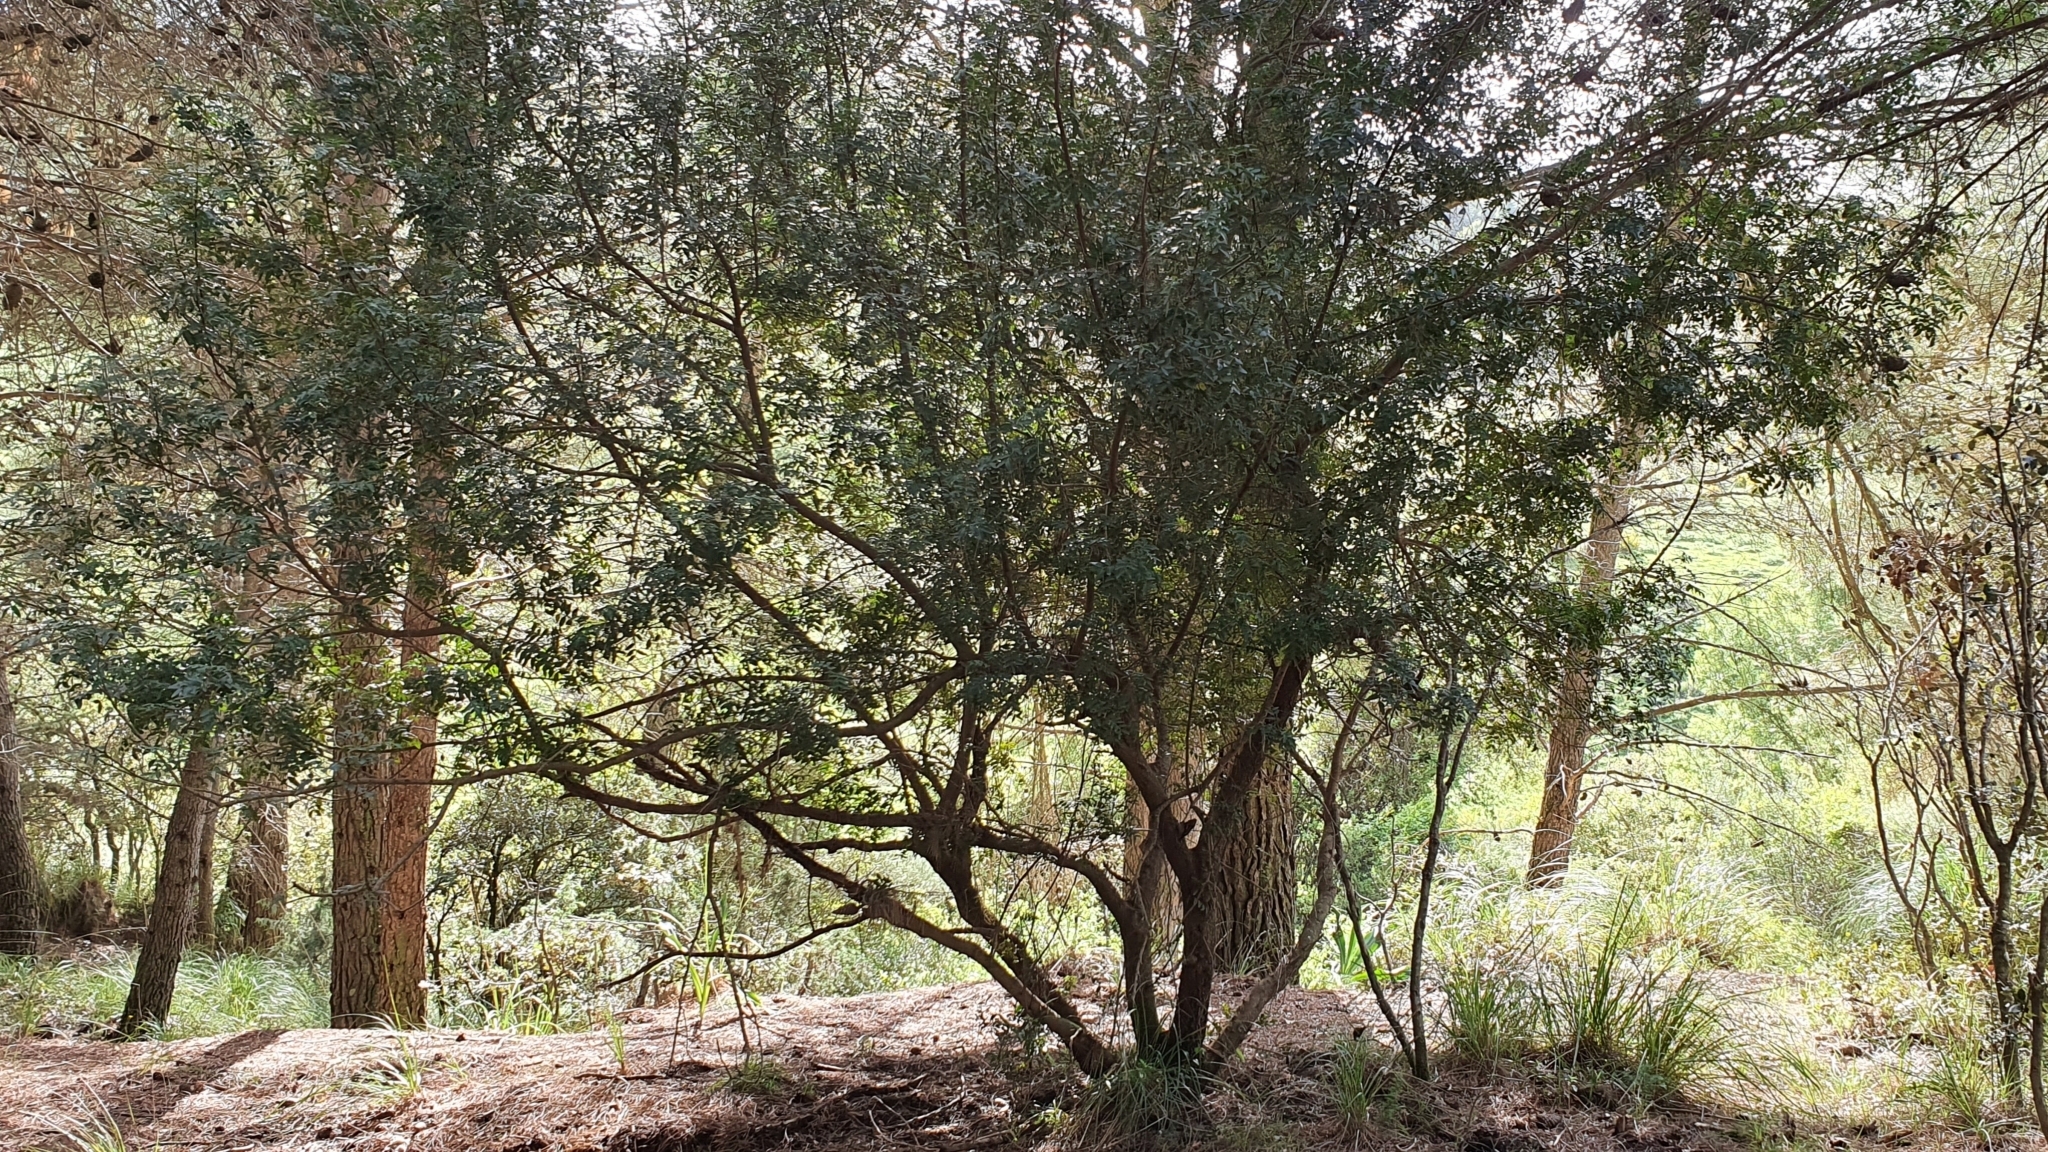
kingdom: Plantae
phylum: Tracheophyta
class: Magnoliopsida
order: Sapindales
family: Anacardiaceae
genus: Pistacia
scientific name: Pistacia lentiscus
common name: Lentisk
